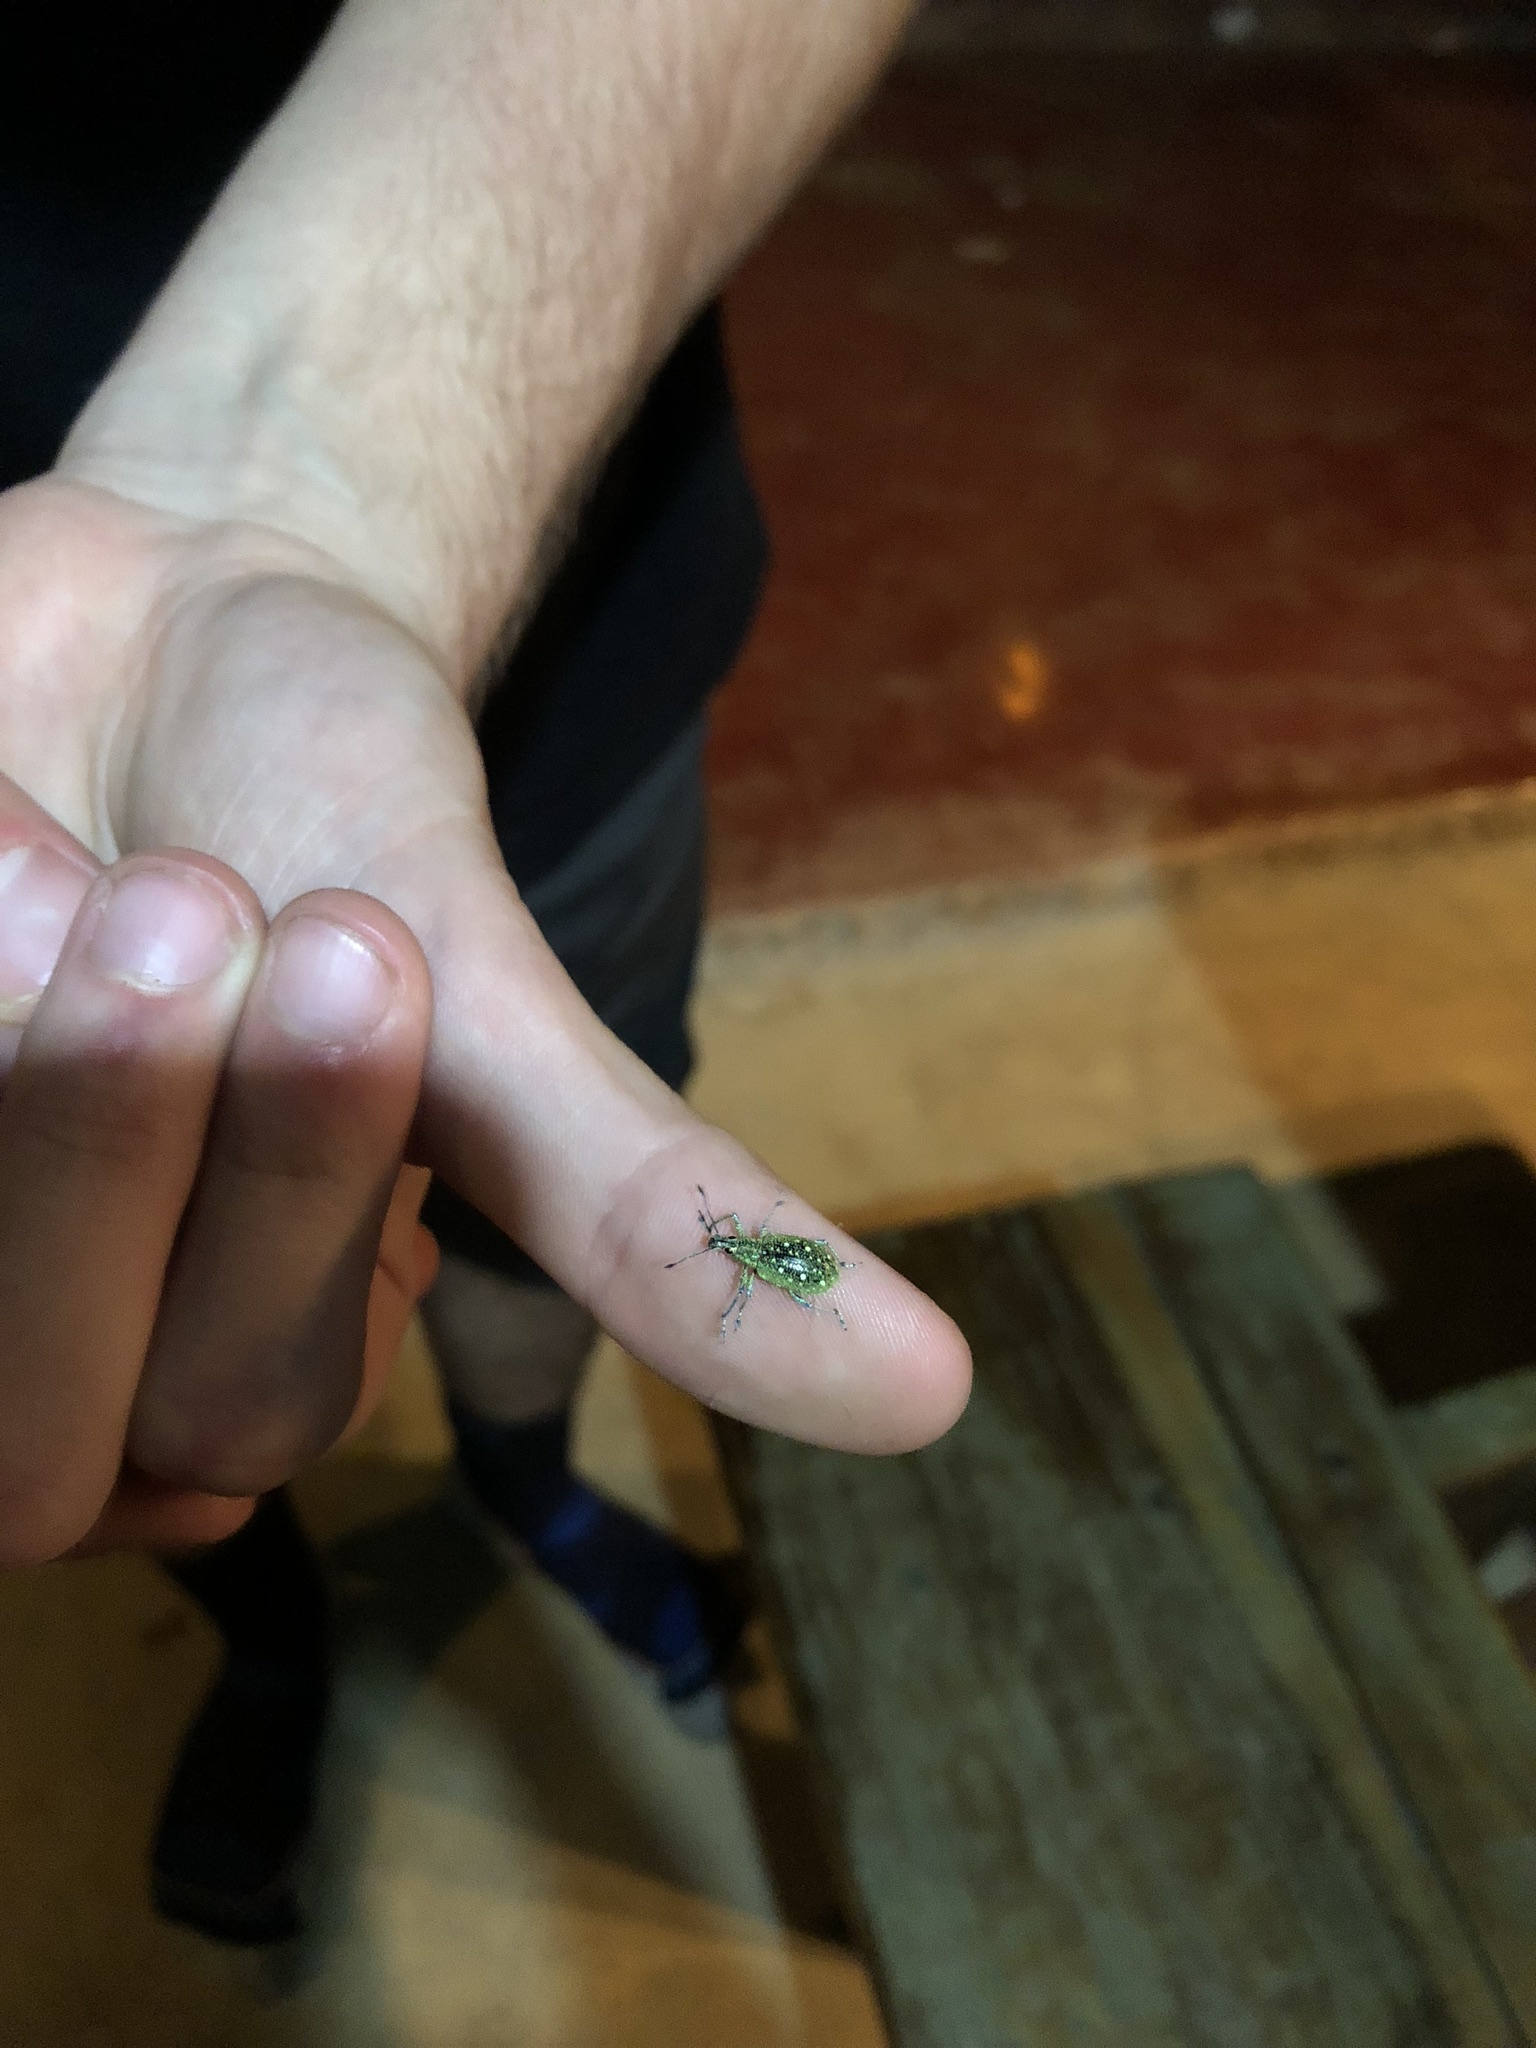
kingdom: Animalia
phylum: Arthropoda
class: Insecta
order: Coleoptera
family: Curculionidae
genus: Exophthalmus
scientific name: Exophthalmus jekelianus
